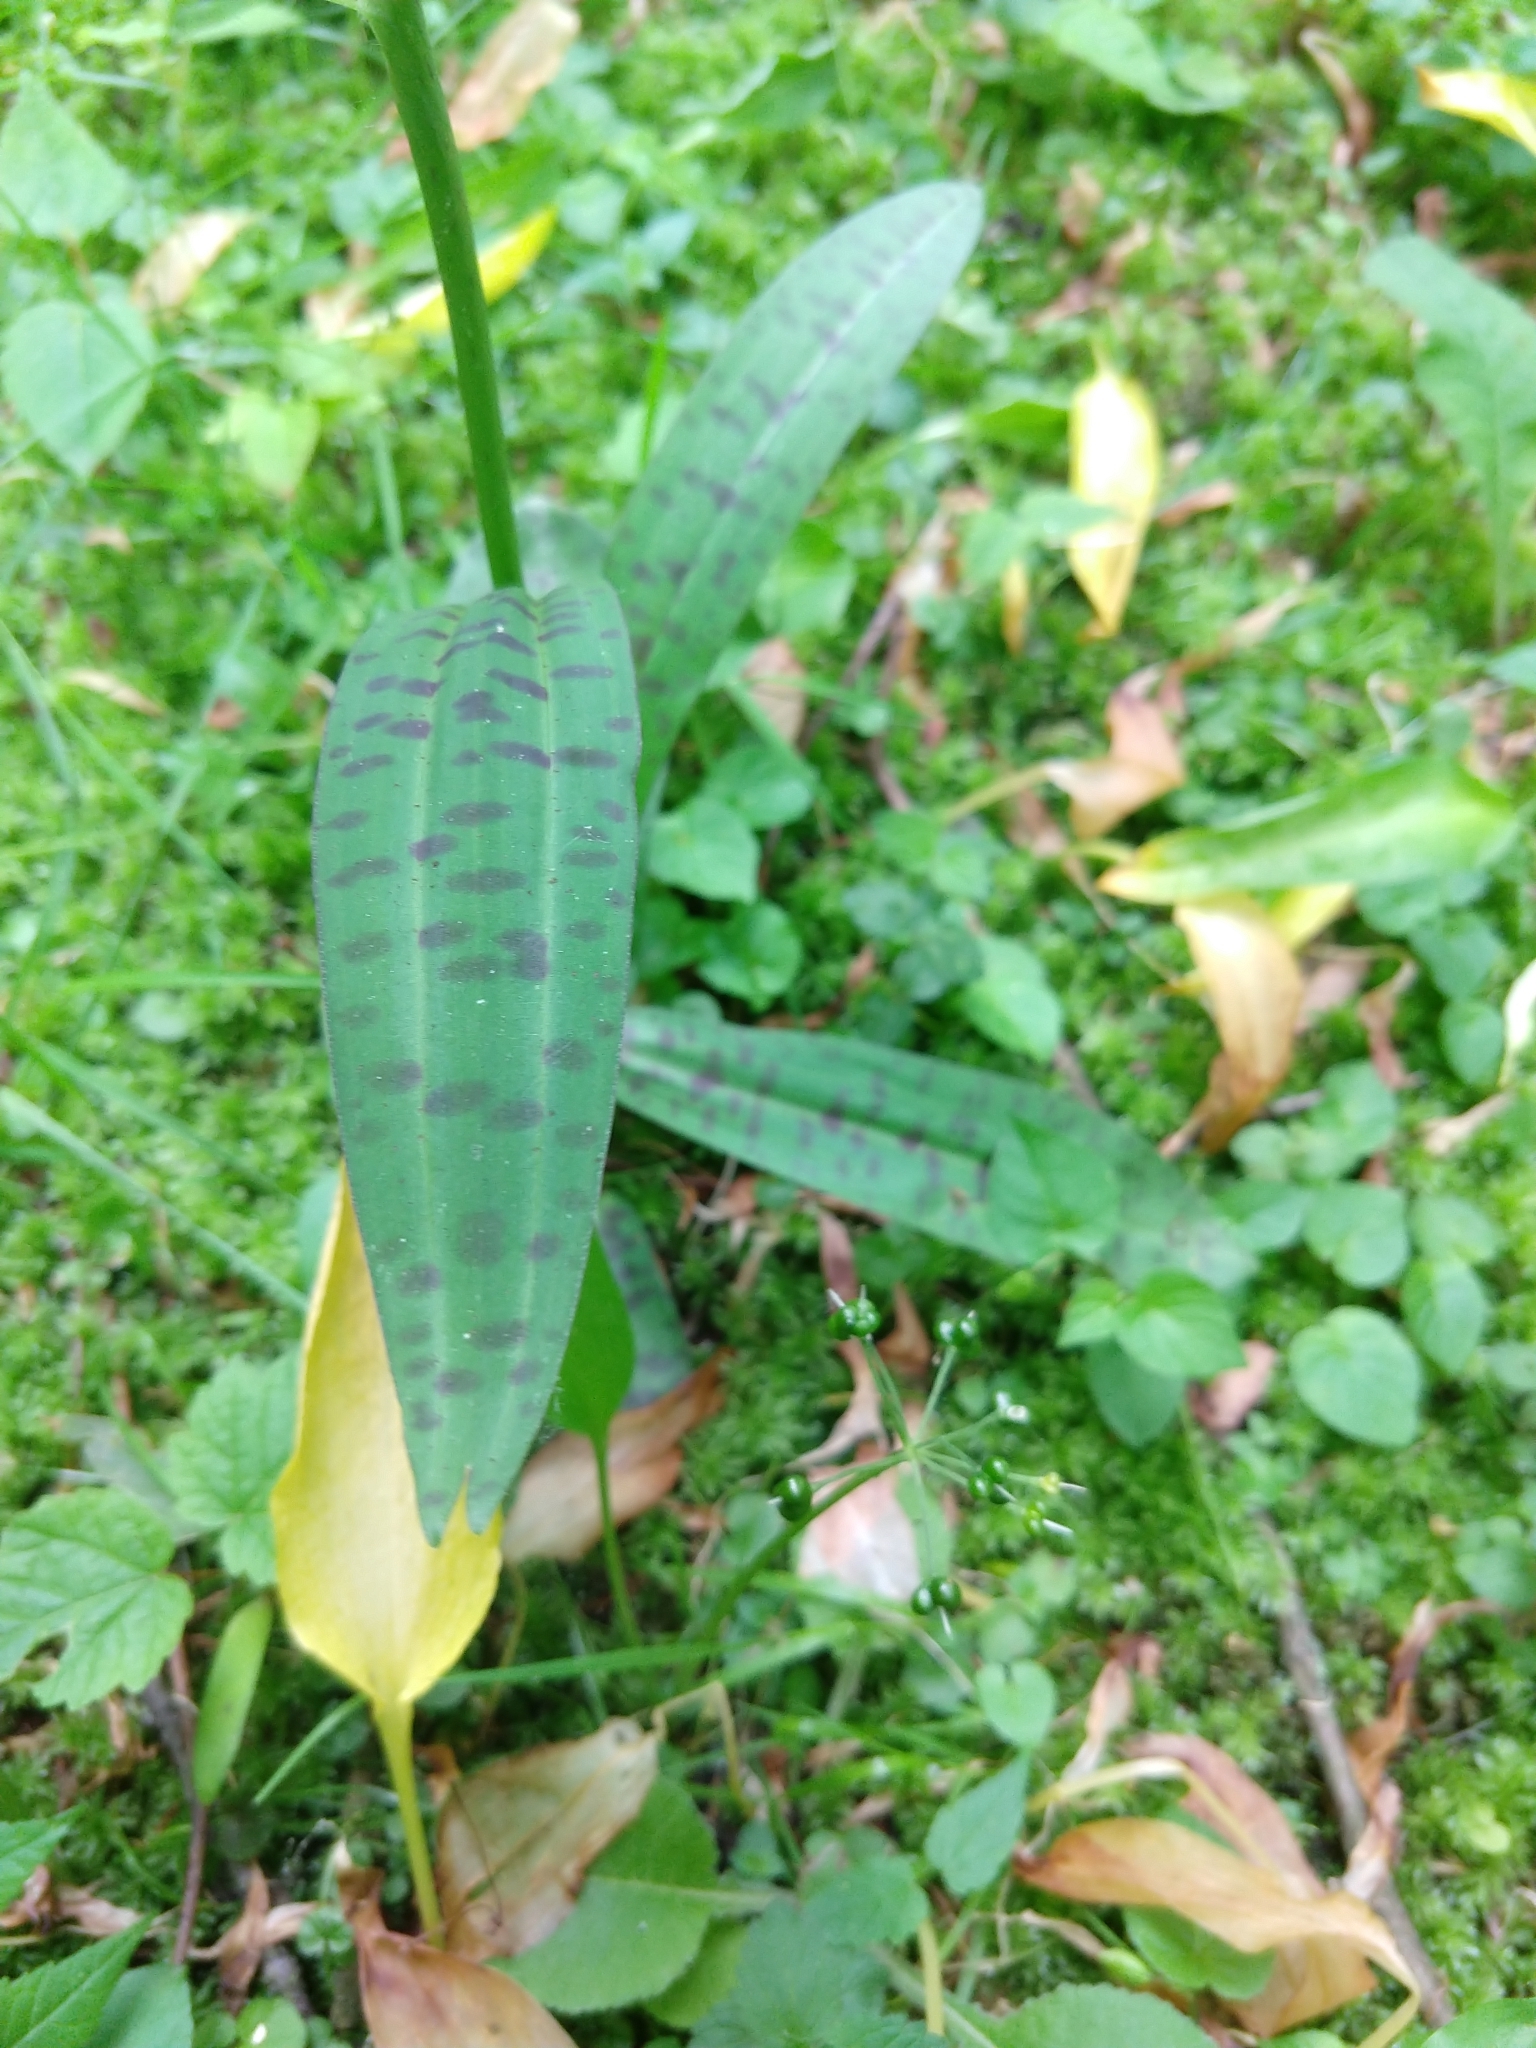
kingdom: Plantae
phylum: Tracheophyta
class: Liliopsida
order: Asparagales
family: Orchidaceae
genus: Dactylorhiza
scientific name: Dactylorhiza maculata
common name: Heath spotted-orchid
